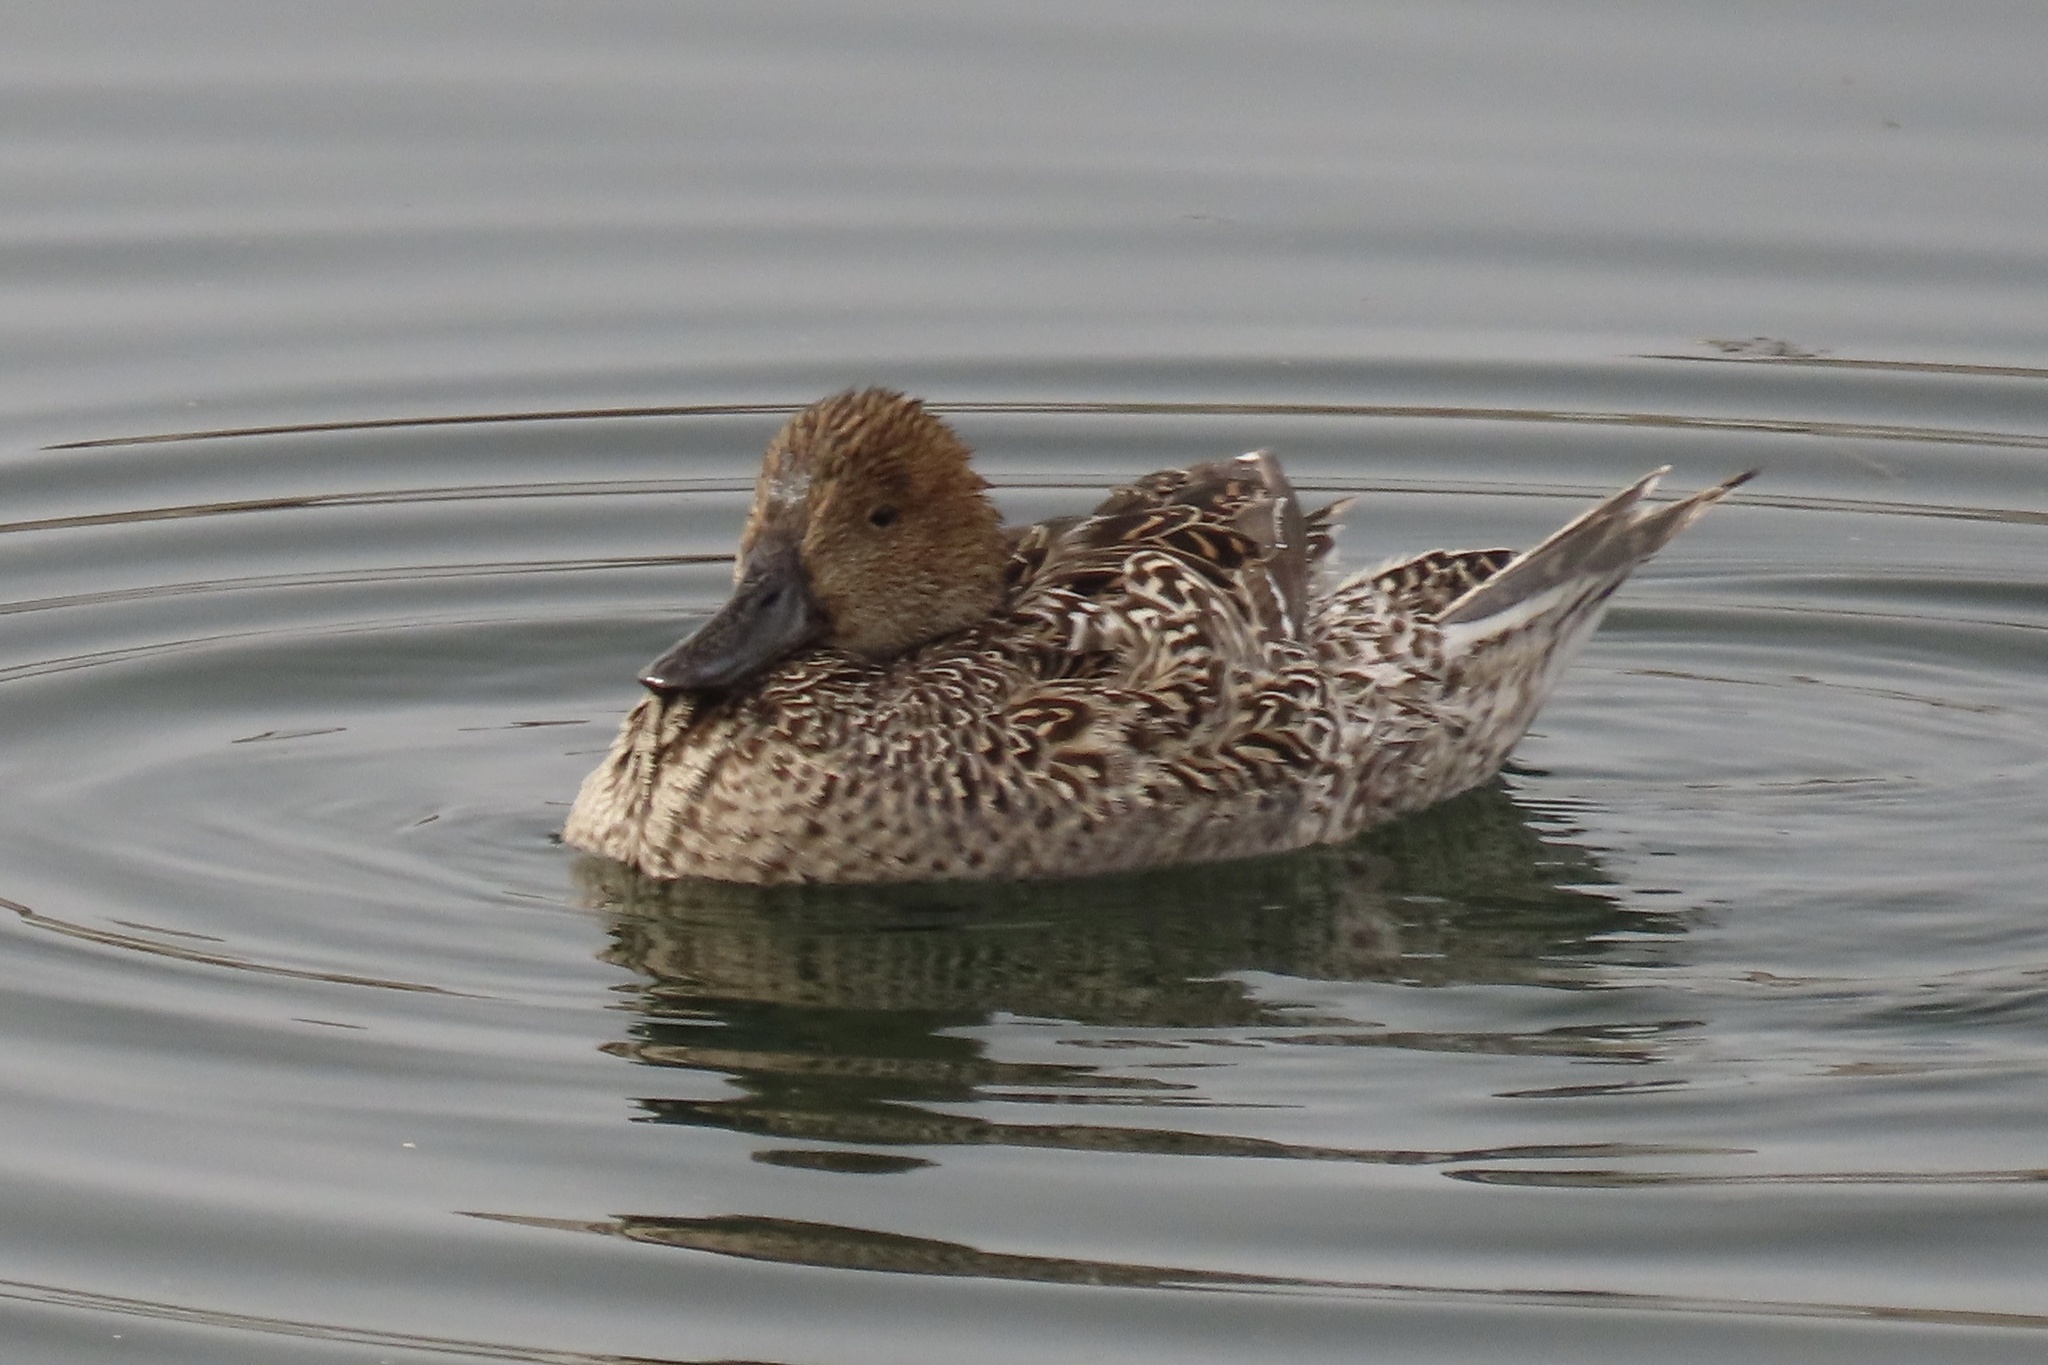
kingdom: Animalia
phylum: Chordata
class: Aves
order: Anseriformes
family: Anatidae
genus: Anas
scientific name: Anas acuta
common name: Northern pintail
